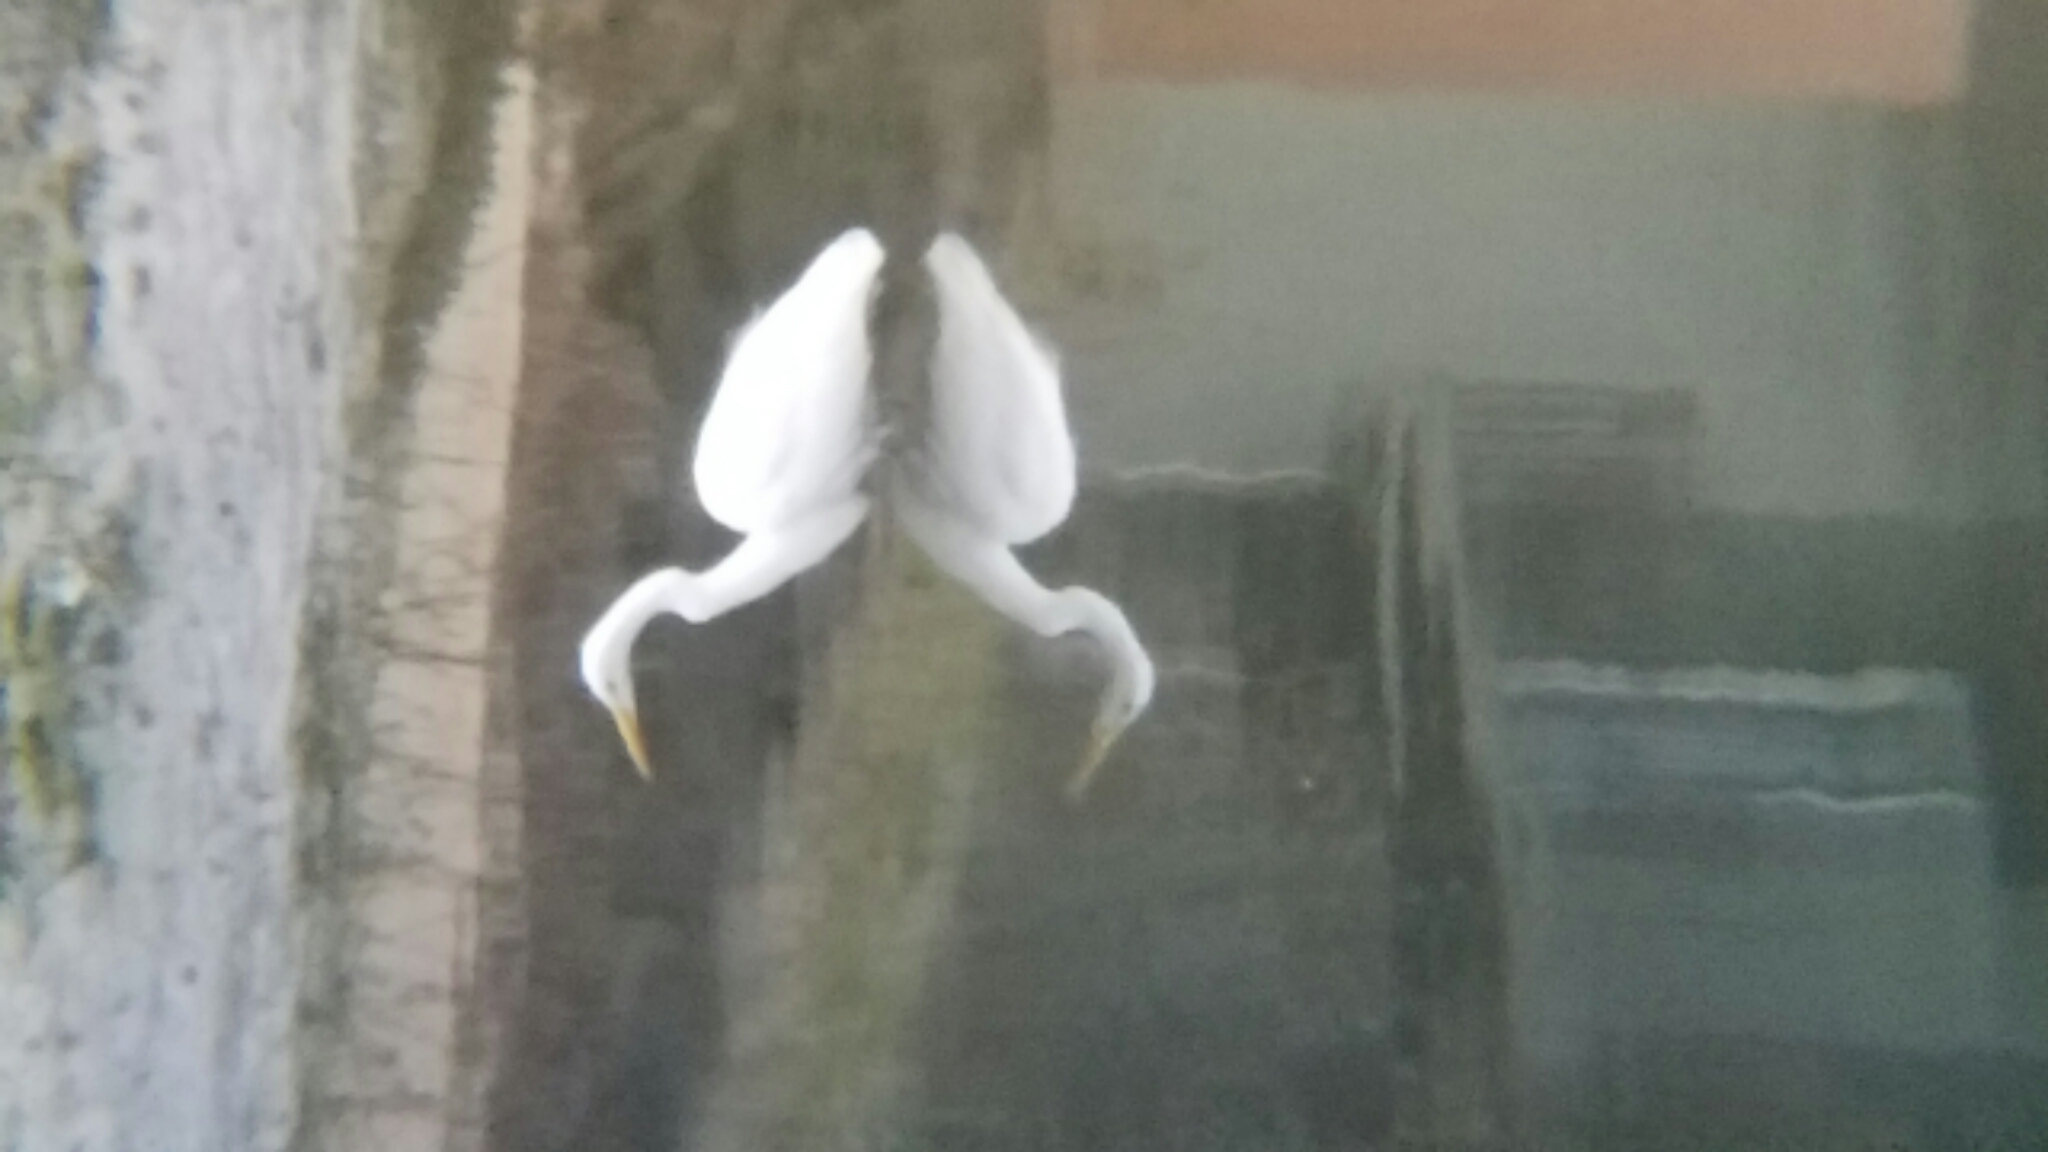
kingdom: Animalia
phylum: Chordata
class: Aves
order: Pelecaniformes
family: Ardeidae
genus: Ardea
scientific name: Ardea alba
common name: Great egret
